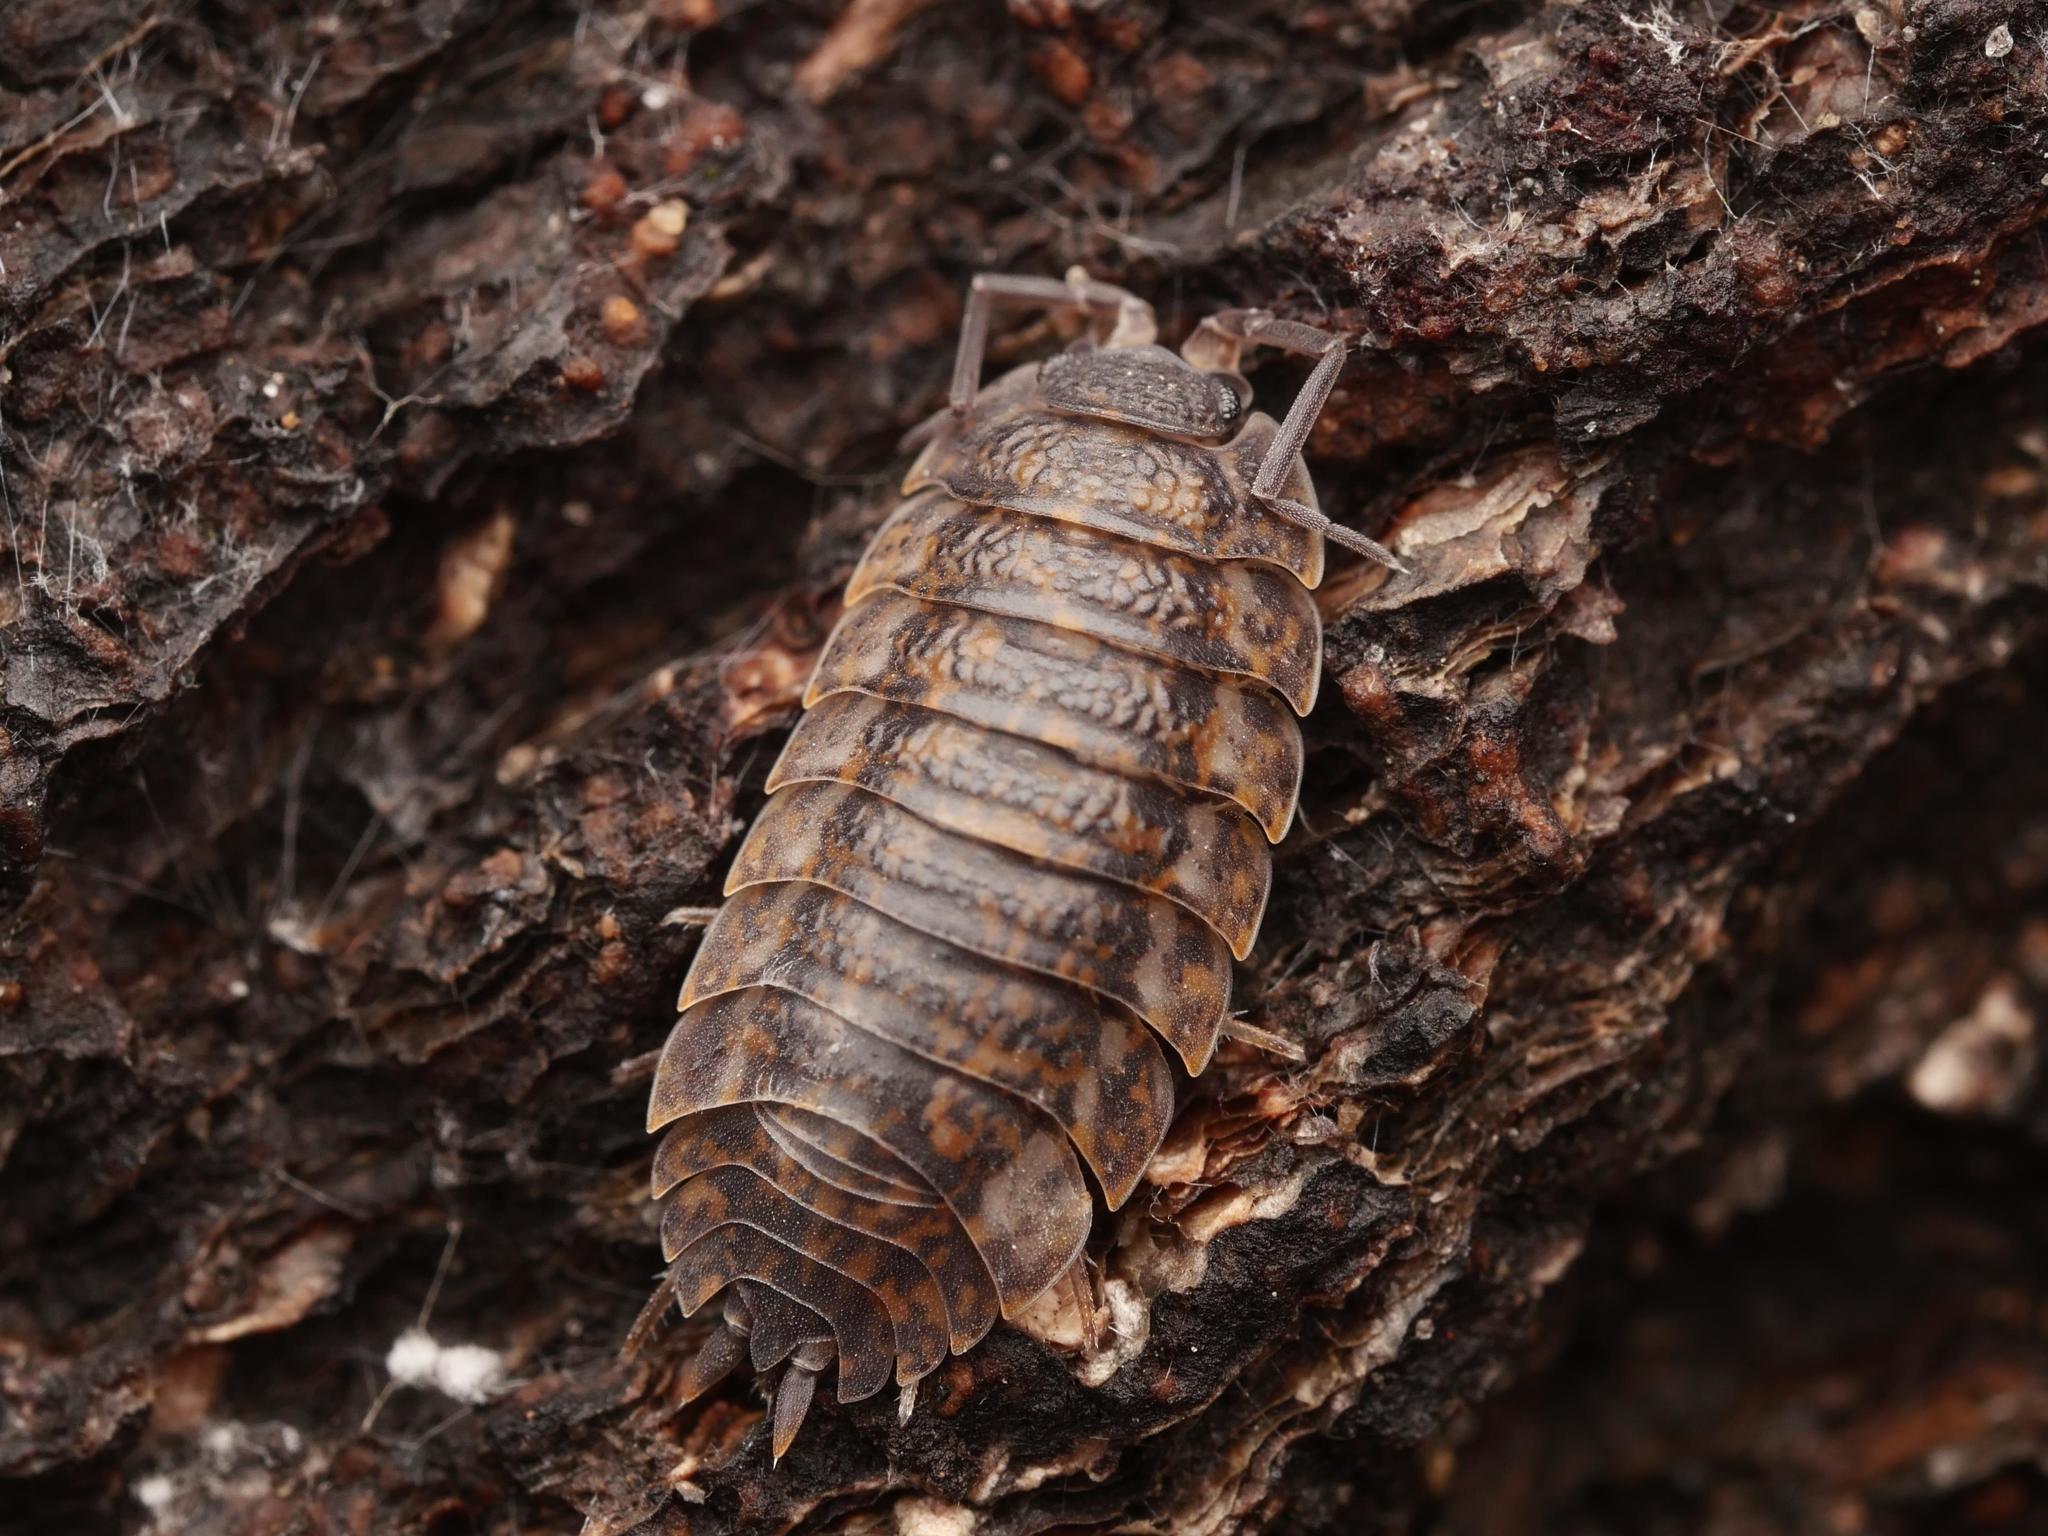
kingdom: Animalia
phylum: Arthropoda
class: Malacostraca
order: Isopoda
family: Trachelipodidae
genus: Trachelipus
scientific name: Trachelipus rathkii
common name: Isopod
